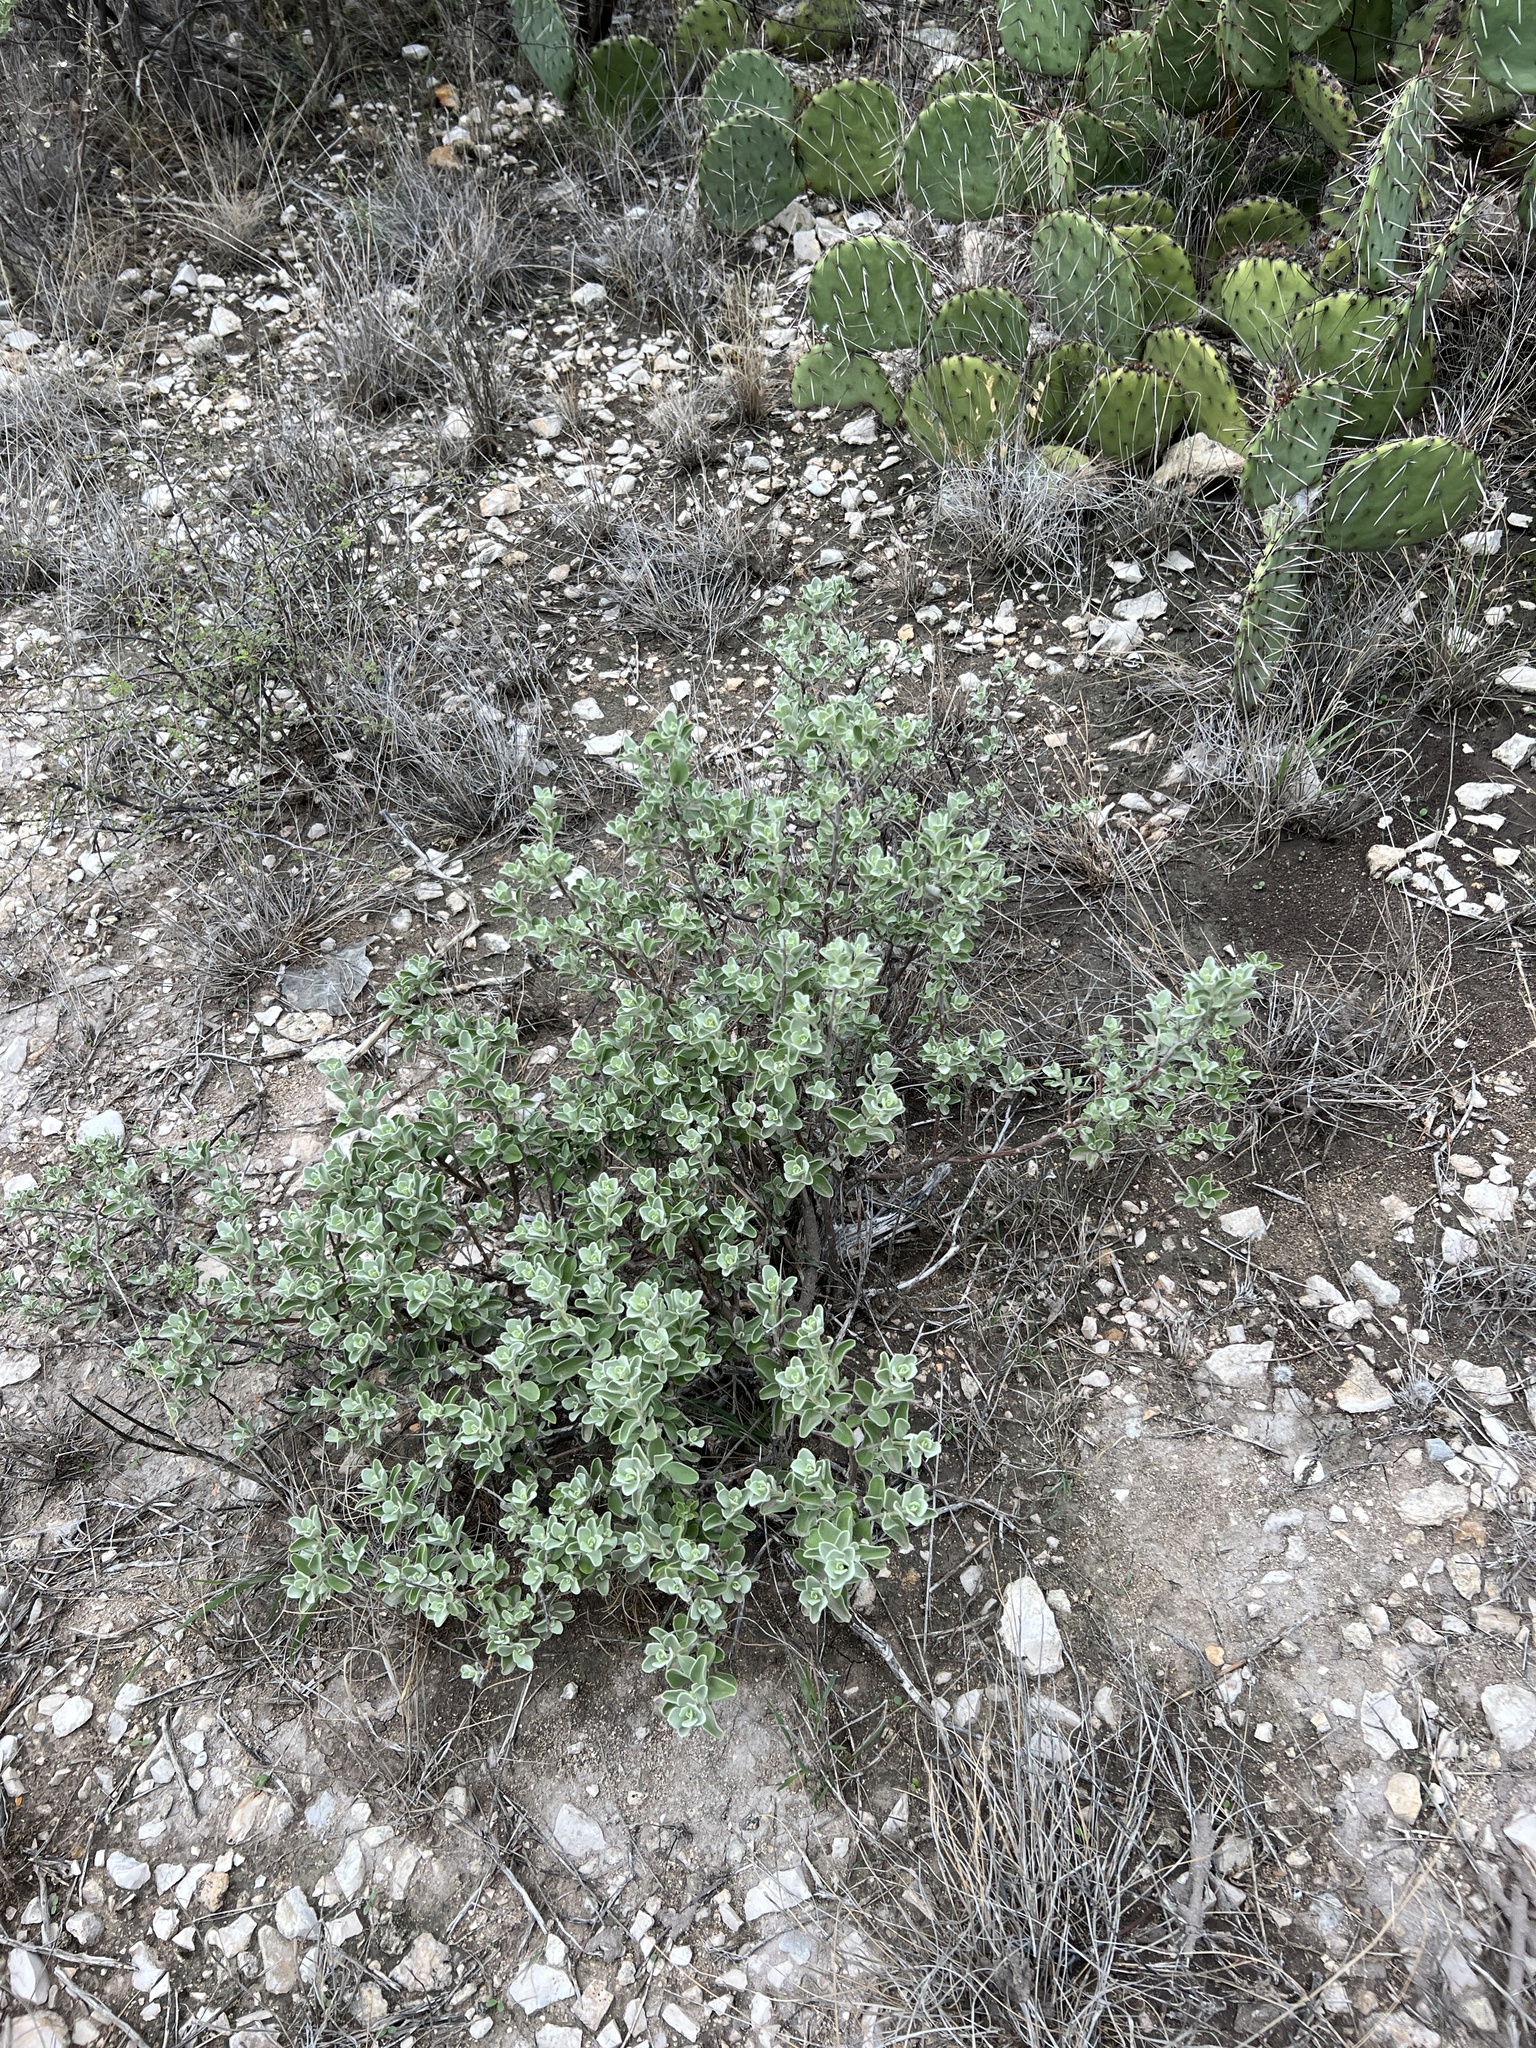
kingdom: Plantae
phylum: Tracheophyta
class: Magnoliopsida
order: Lamiales
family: Scrophulariaceae
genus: Leucophyllum
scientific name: Leucophyllum frutescens
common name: Texas silverleaf
